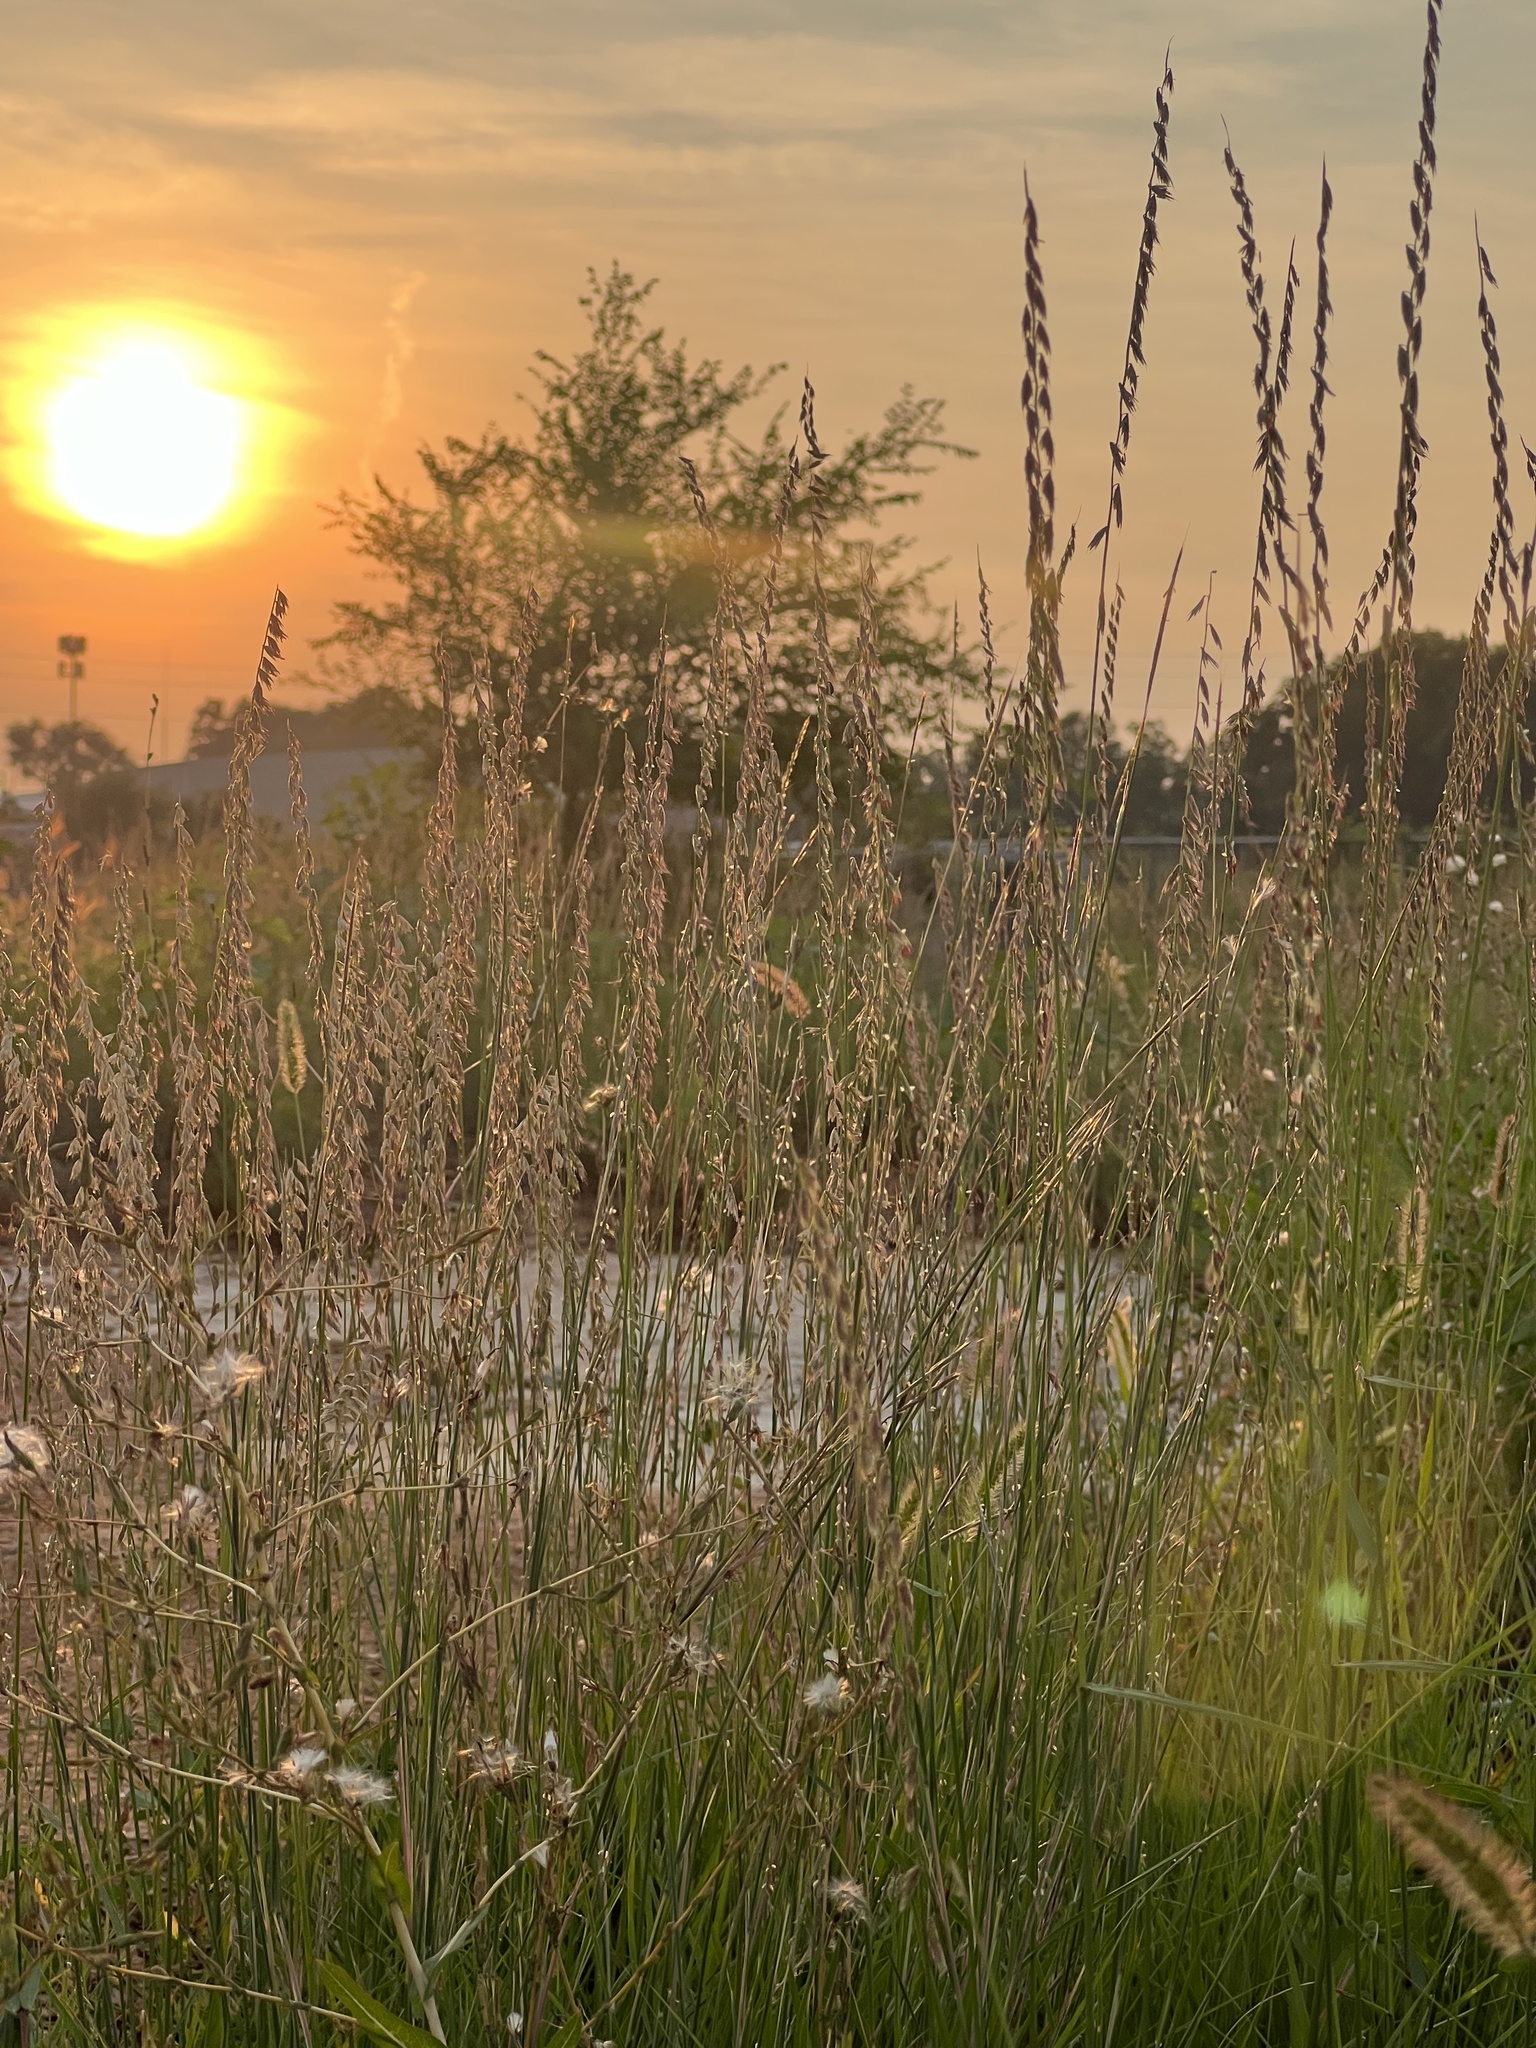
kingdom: Plantae
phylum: Tracheophyta
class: Liliopsida
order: Poales
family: Poaceae
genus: Bouteloua
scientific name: Bouteloua curtipendula
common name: Side-oats grama
